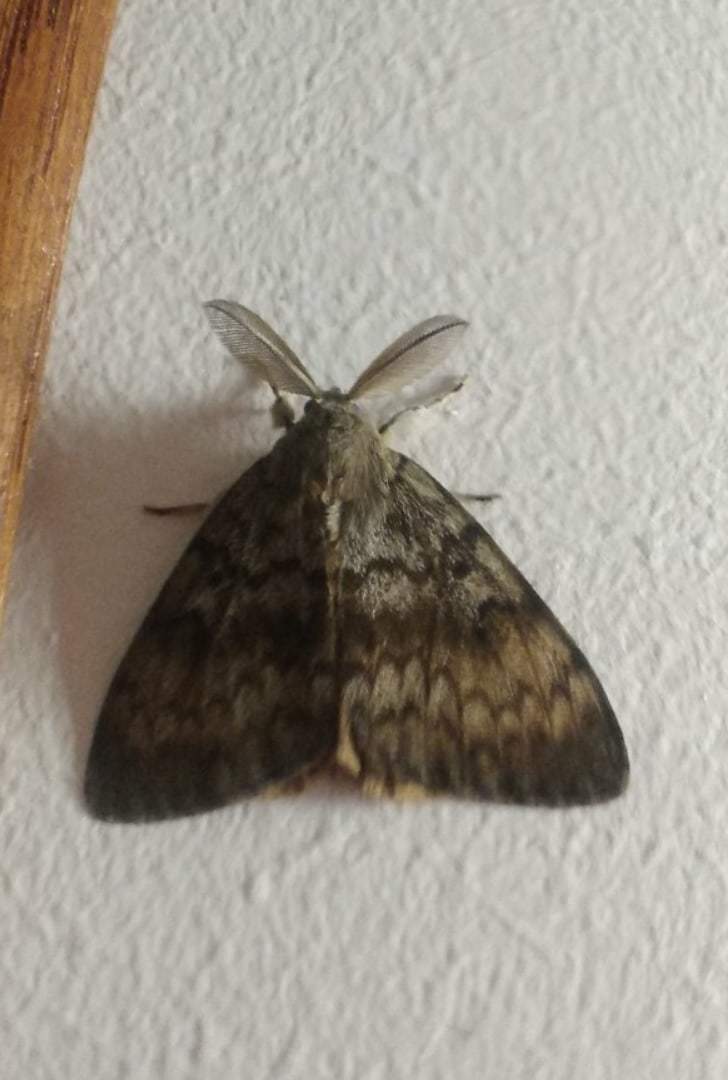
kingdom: Animalia
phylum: Arthropoda
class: Insecta
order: Lepidoptera
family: Erebidae
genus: Lymantria
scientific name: Lymantria dispar
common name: Gypsy moth
